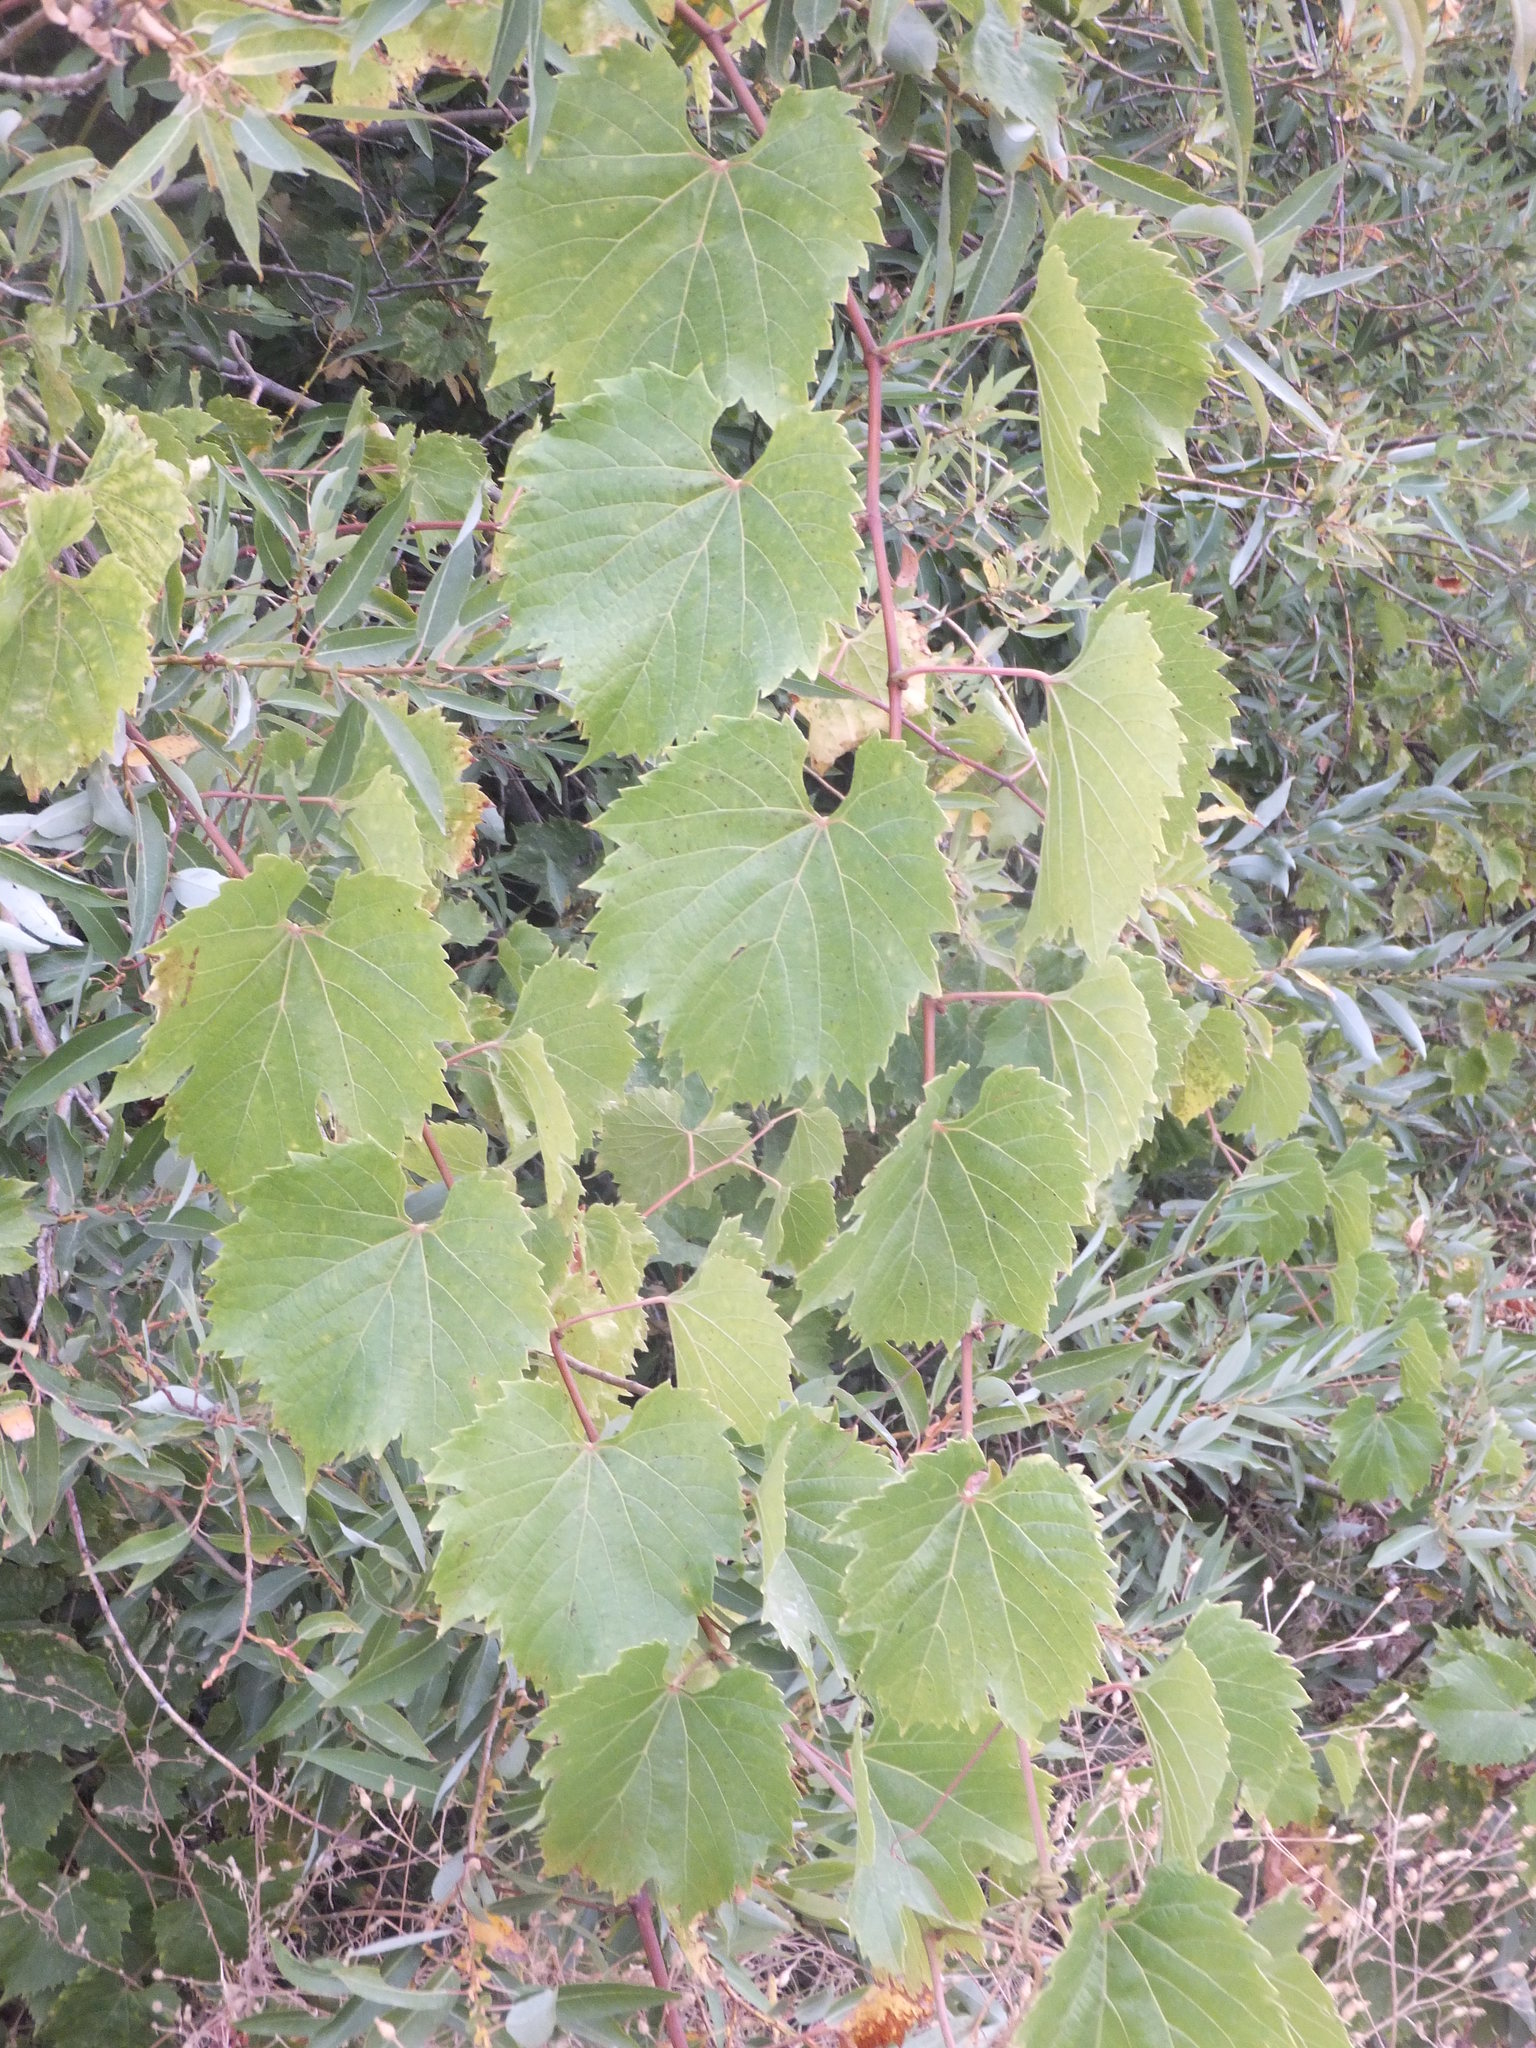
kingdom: Plantae
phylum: Tracheophyta
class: Magnoliopsida
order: Vitales
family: Vitaceae
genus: Vitis
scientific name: Vitis vinifera
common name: Grape-vine
